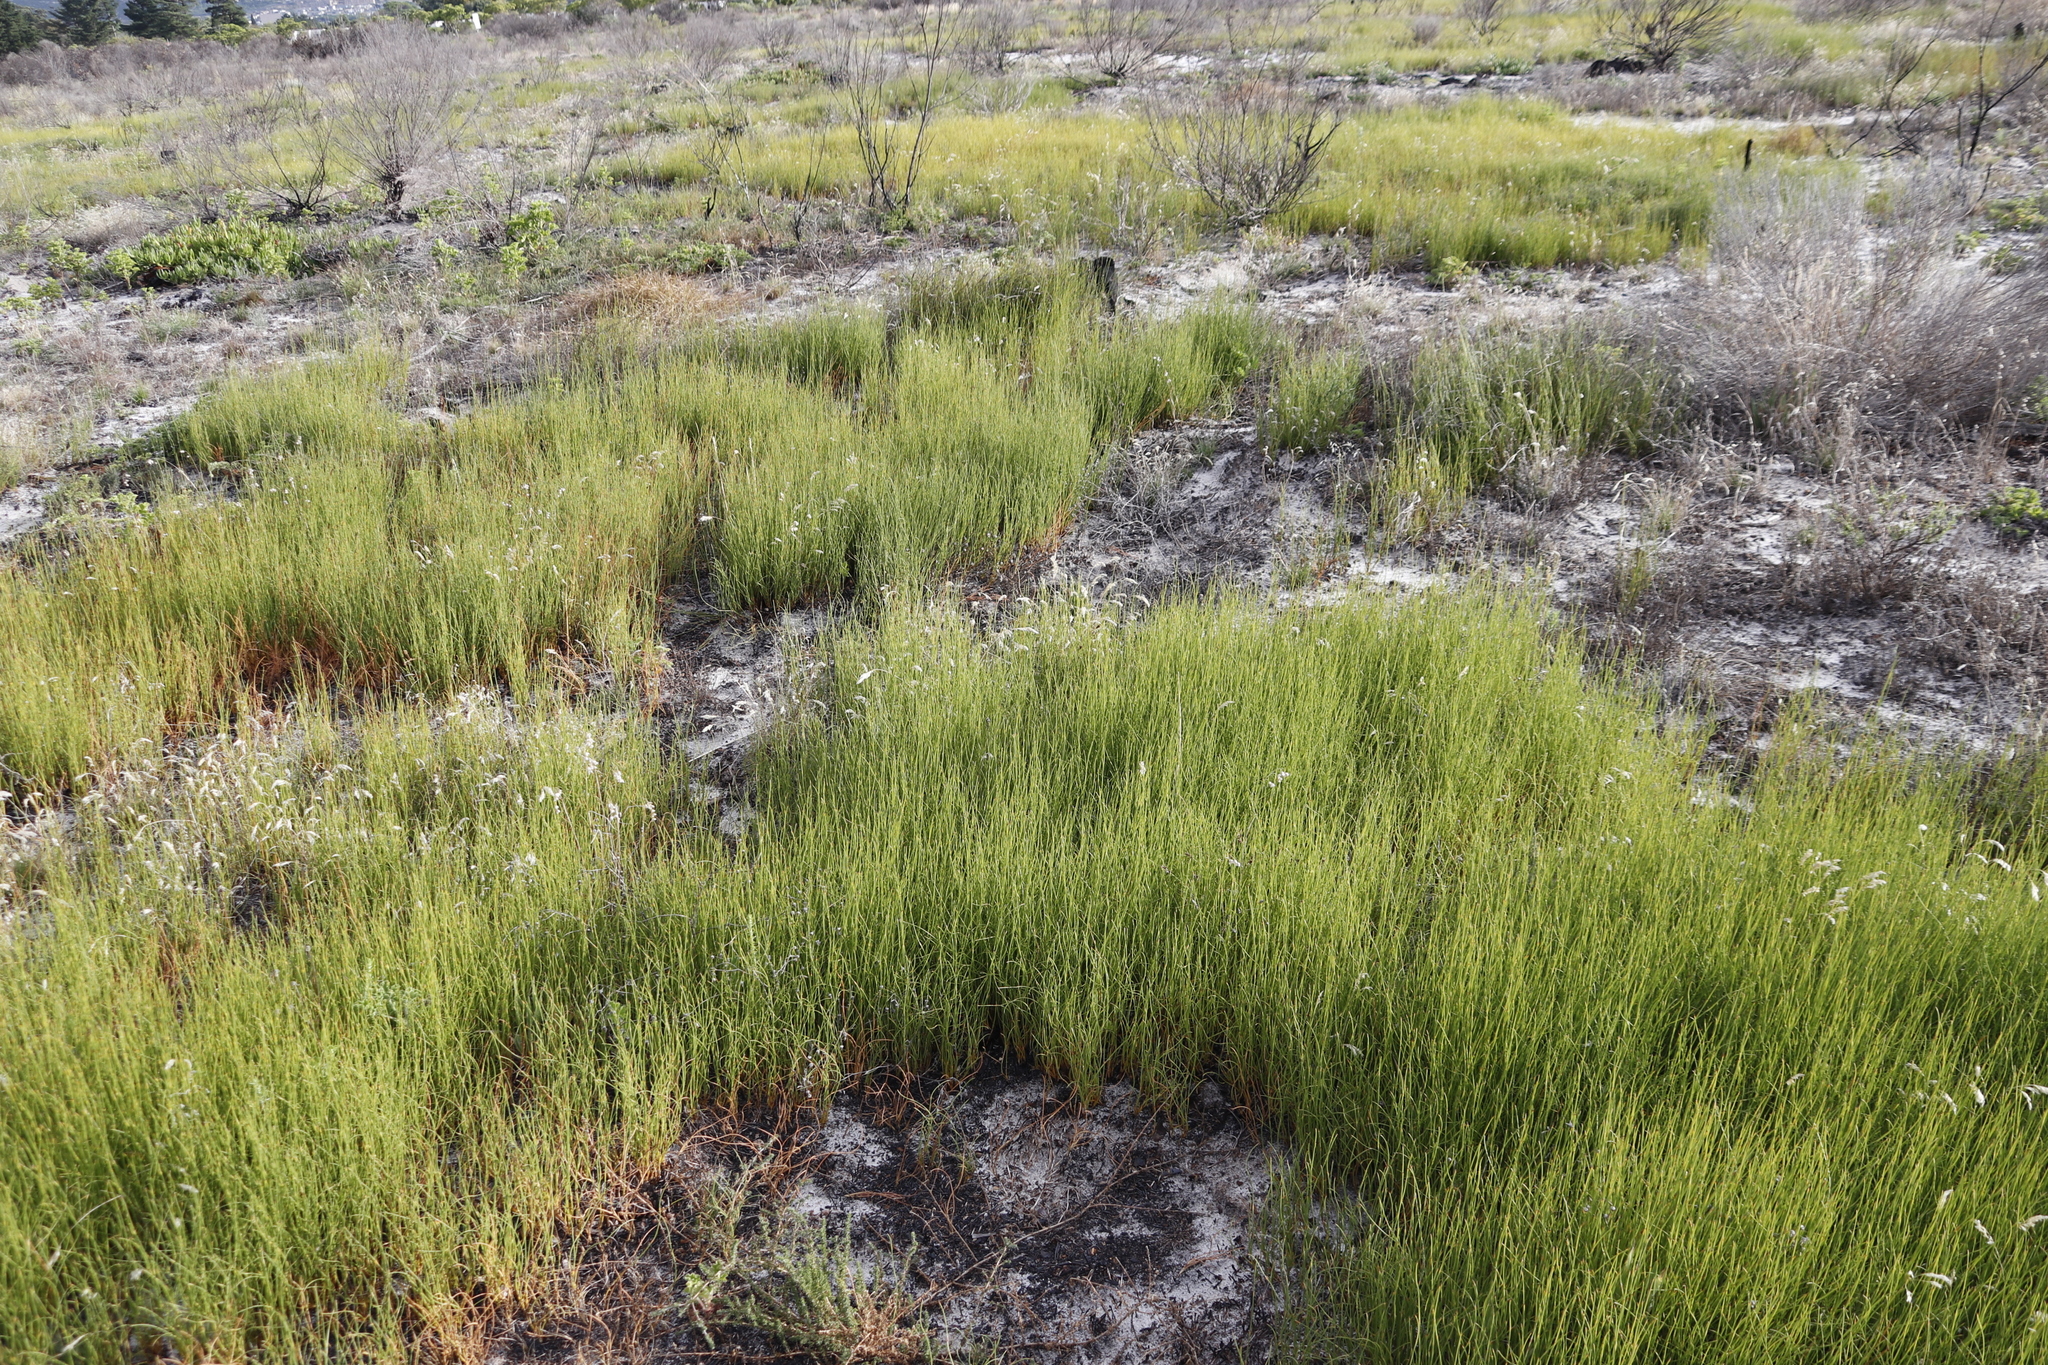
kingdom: Plantae
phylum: Tracheophyta
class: Liliopsida
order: Poales
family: Restionaceae
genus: Willdenowia
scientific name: Willdenowia sulcata
